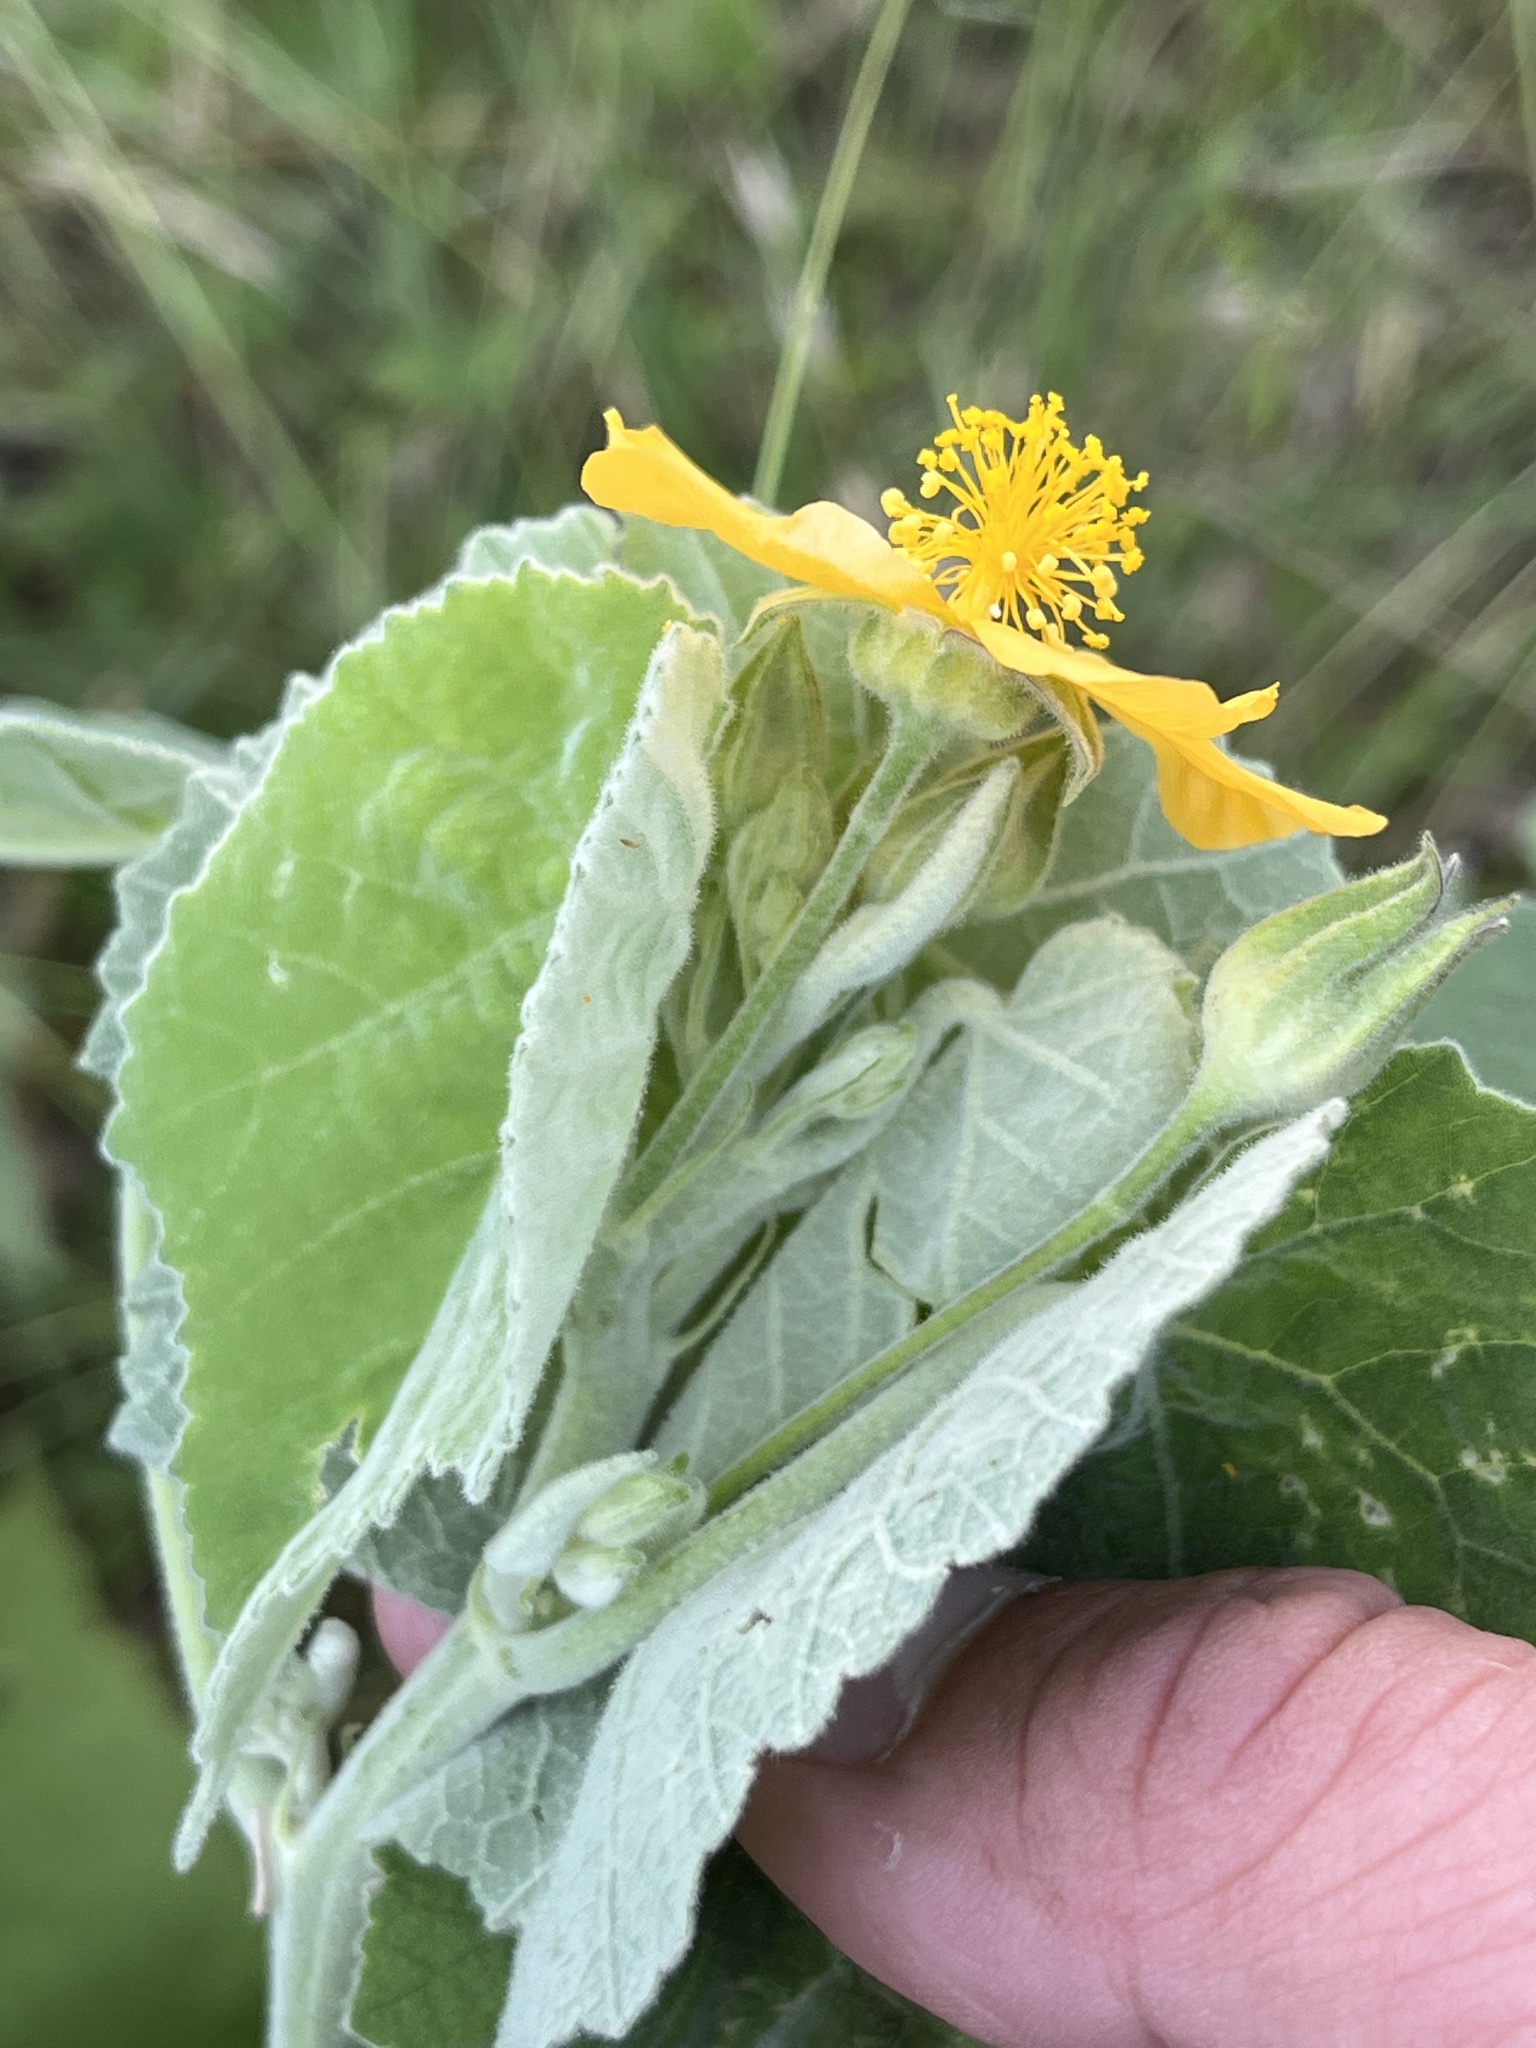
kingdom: Plantae
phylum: Tracheophyta
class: Magnoliopsida
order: Malvales
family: Malvaceae
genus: Allowissadula
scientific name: Allowissadula holosericea
